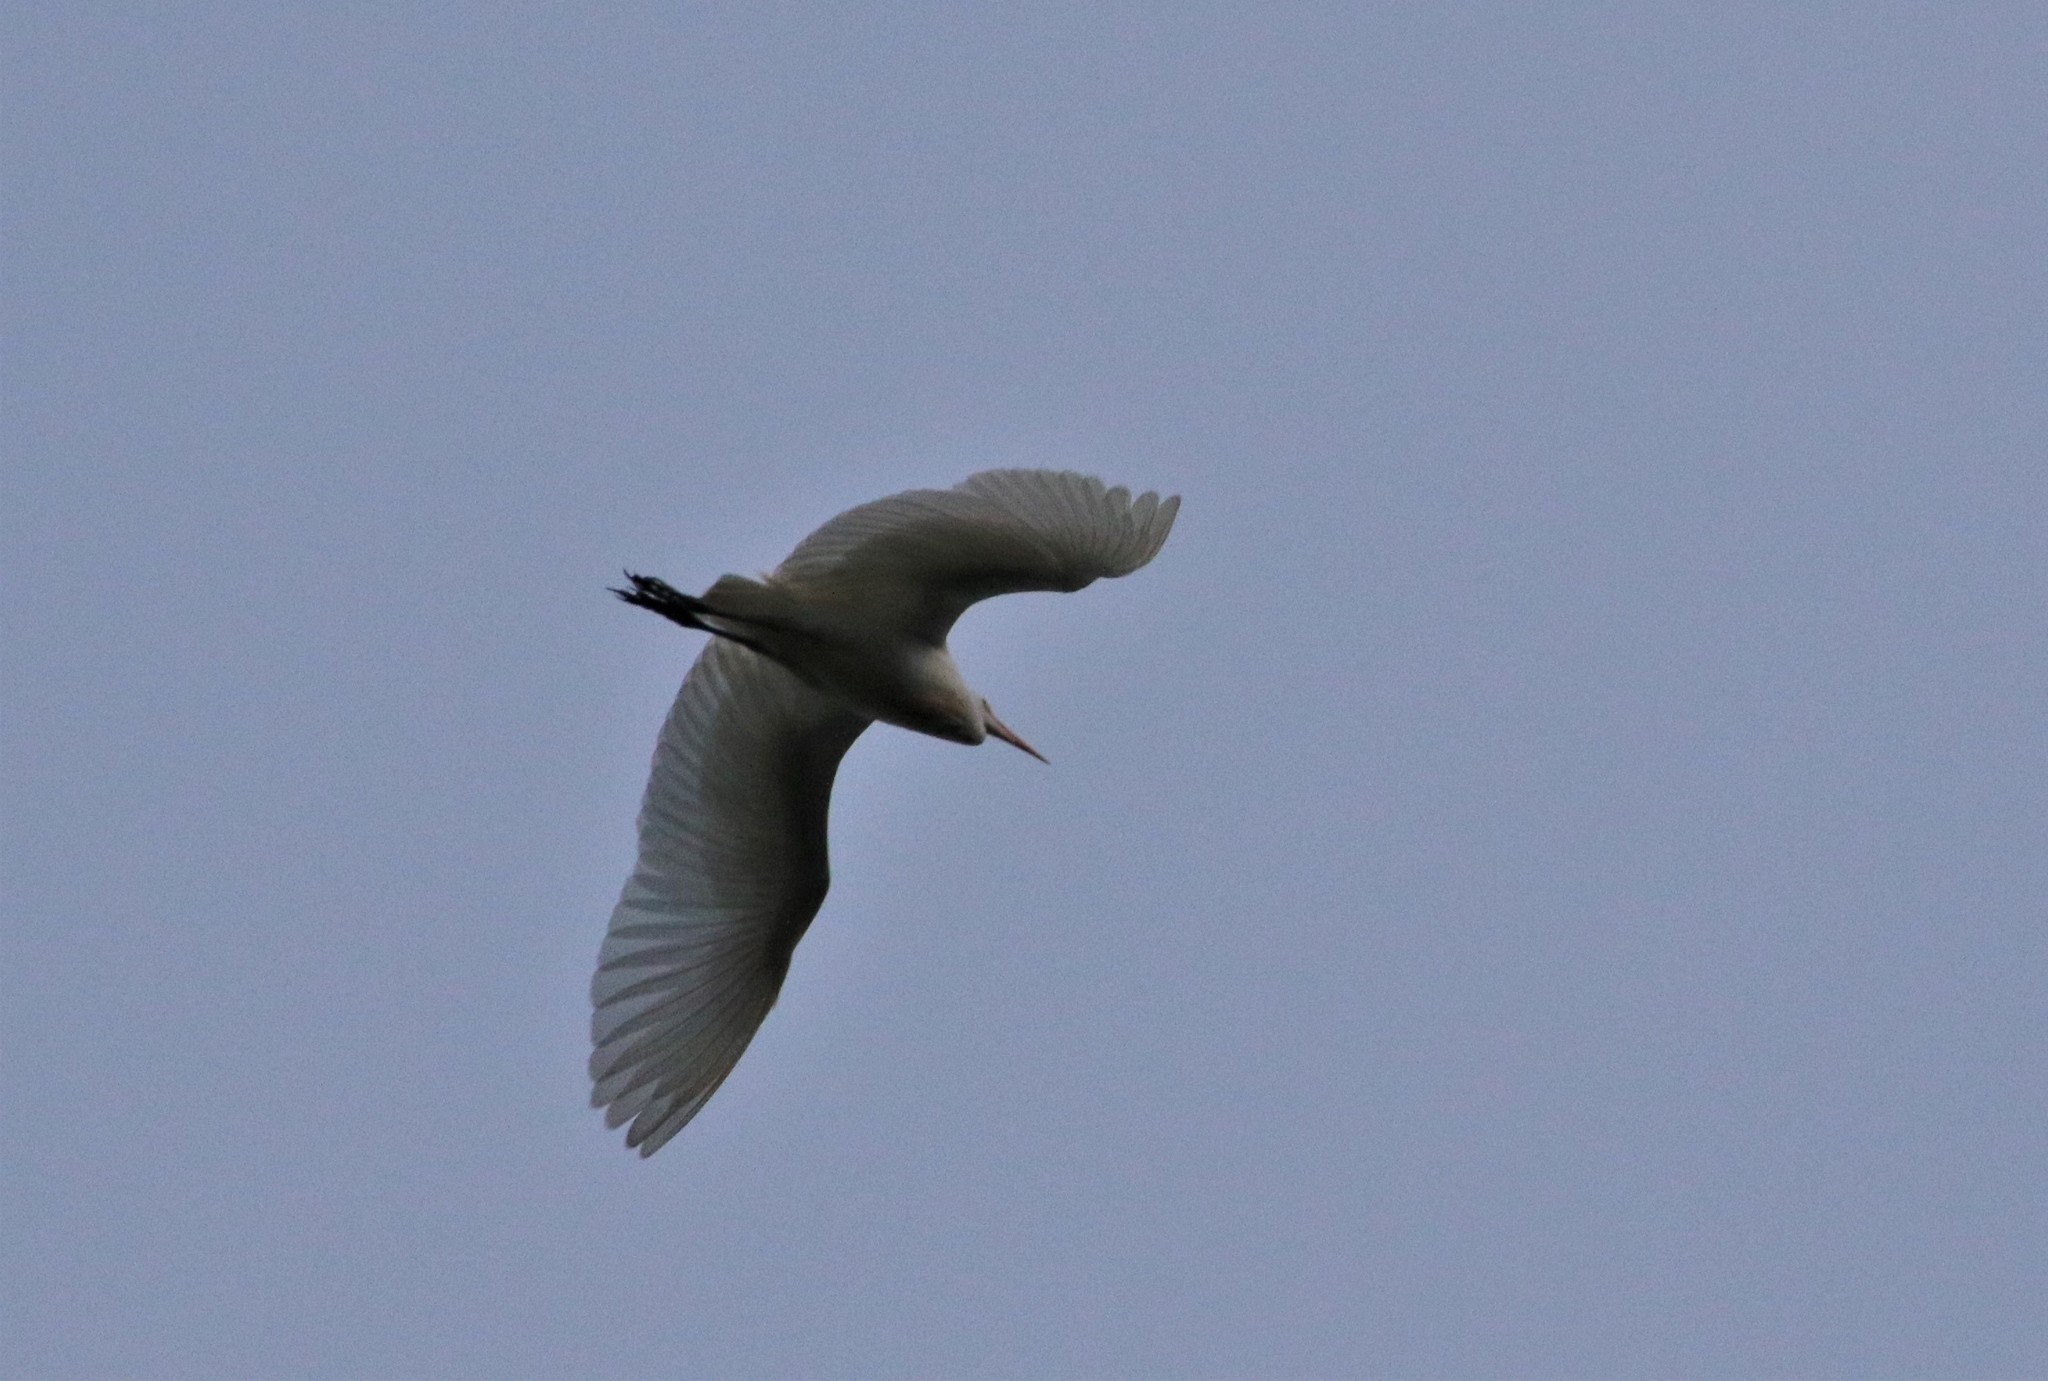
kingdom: Animalia
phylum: Chordata
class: Aves
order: Pelecaniformes
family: Ardeidae
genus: Ardea
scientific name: Ardea alba
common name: Great egret
